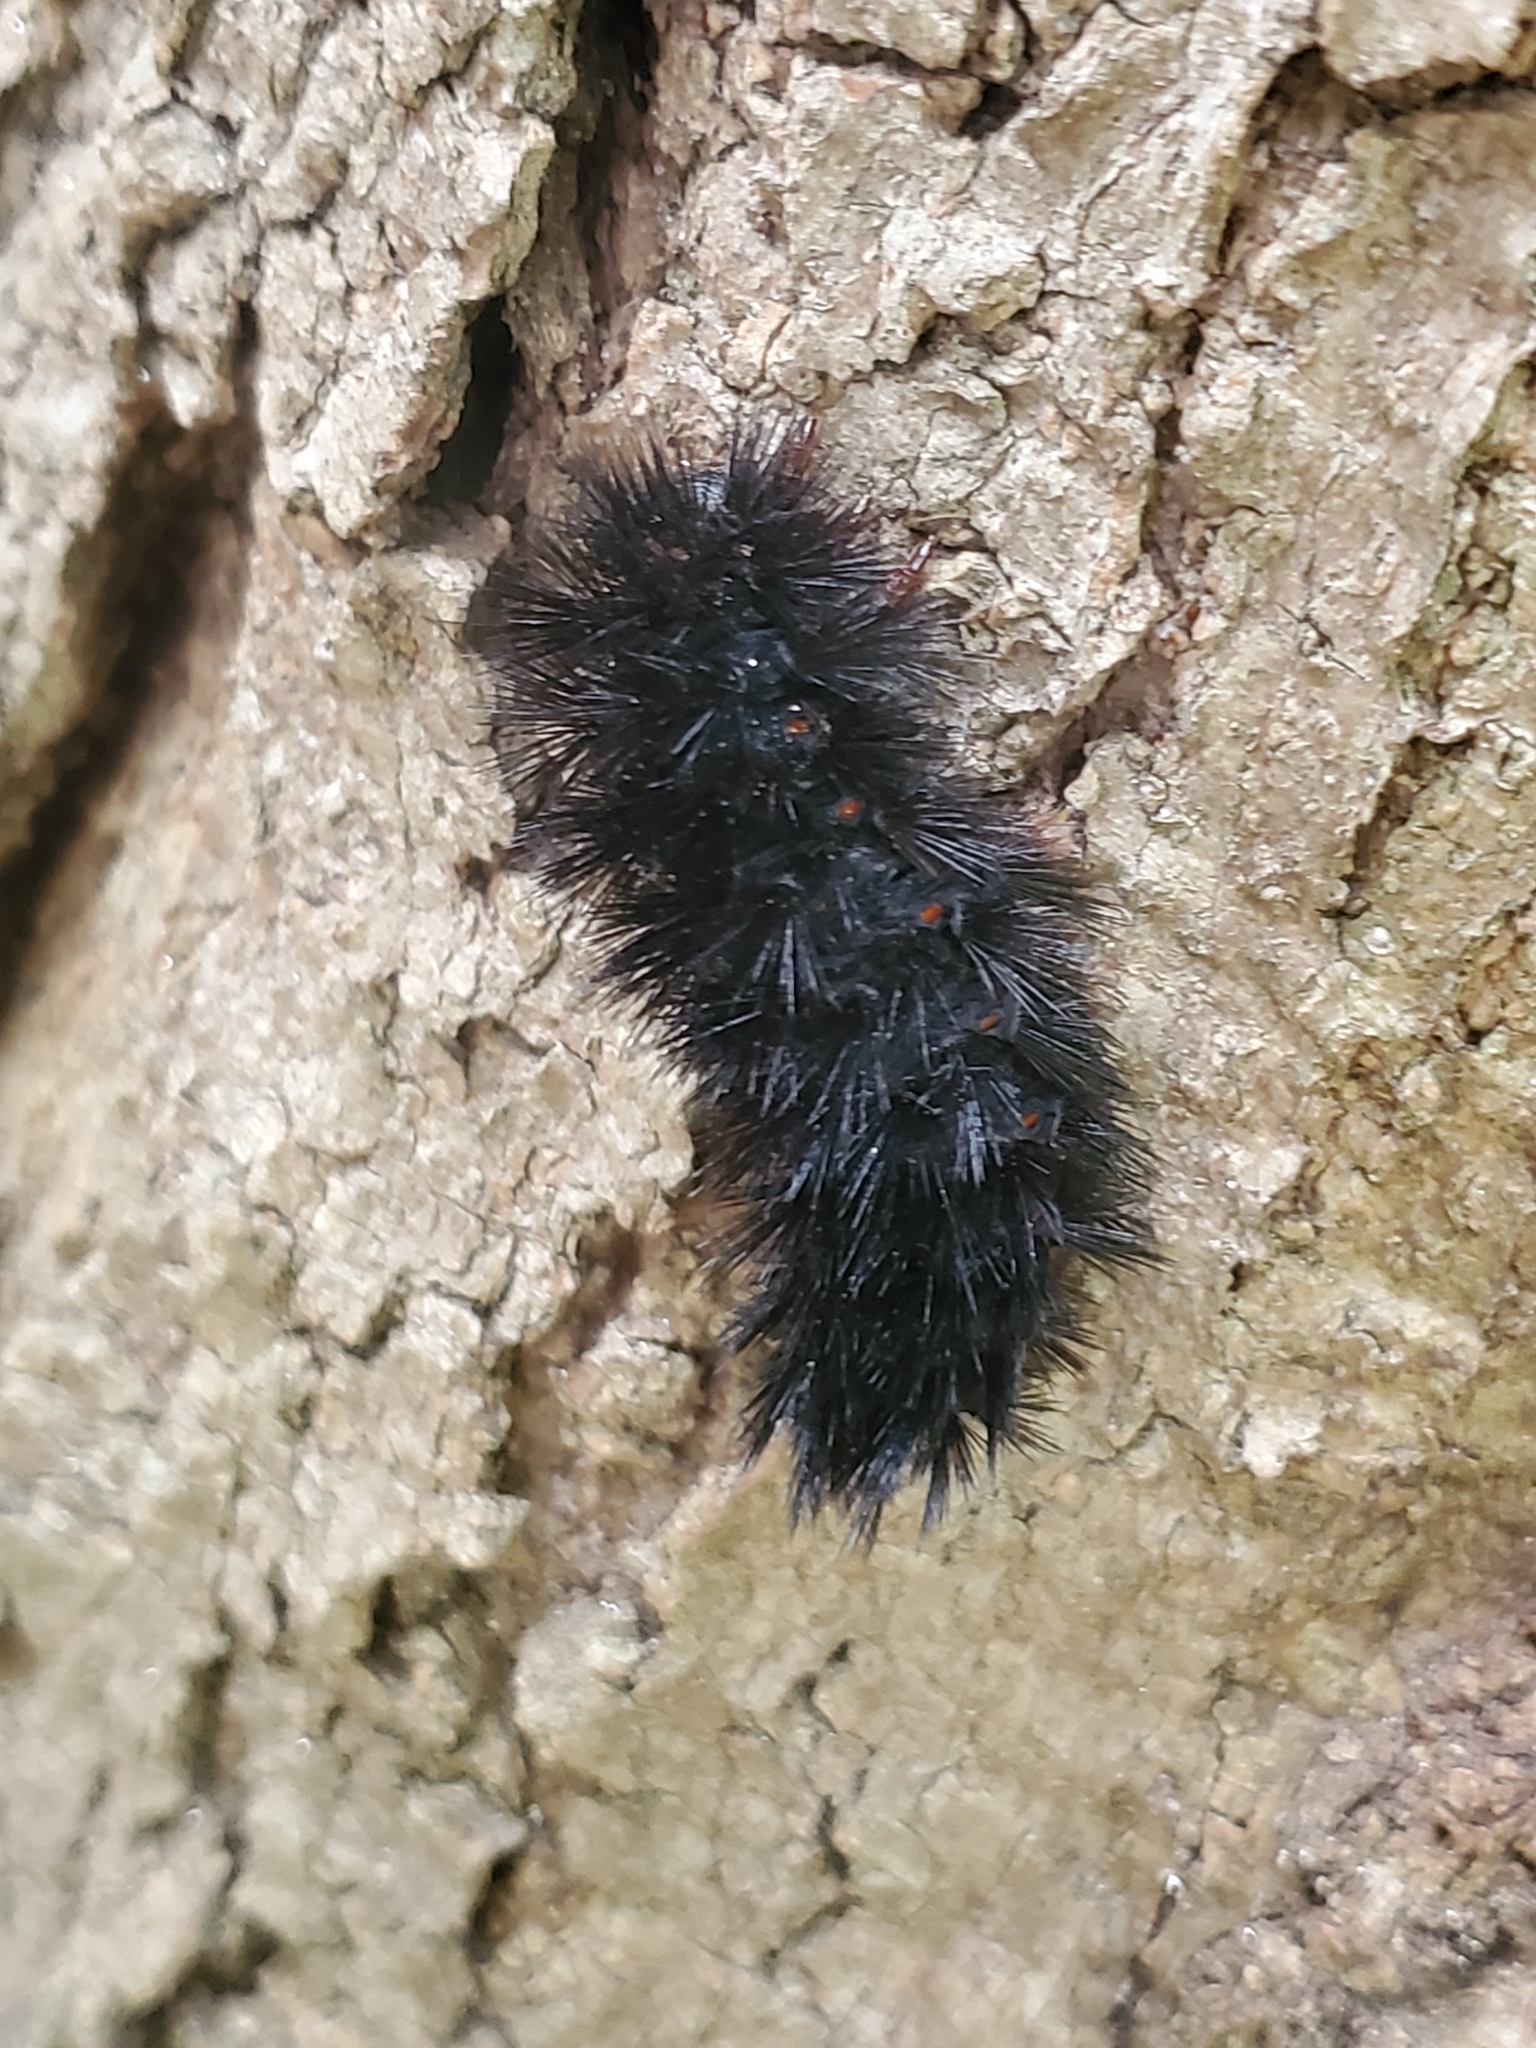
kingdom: Animalia
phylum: Arthropoda
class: Insecta
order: Lepidoptera
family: Erebidae
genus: Hypercompe
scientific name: Hypercompe scribonia
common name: Giant leopard moth
